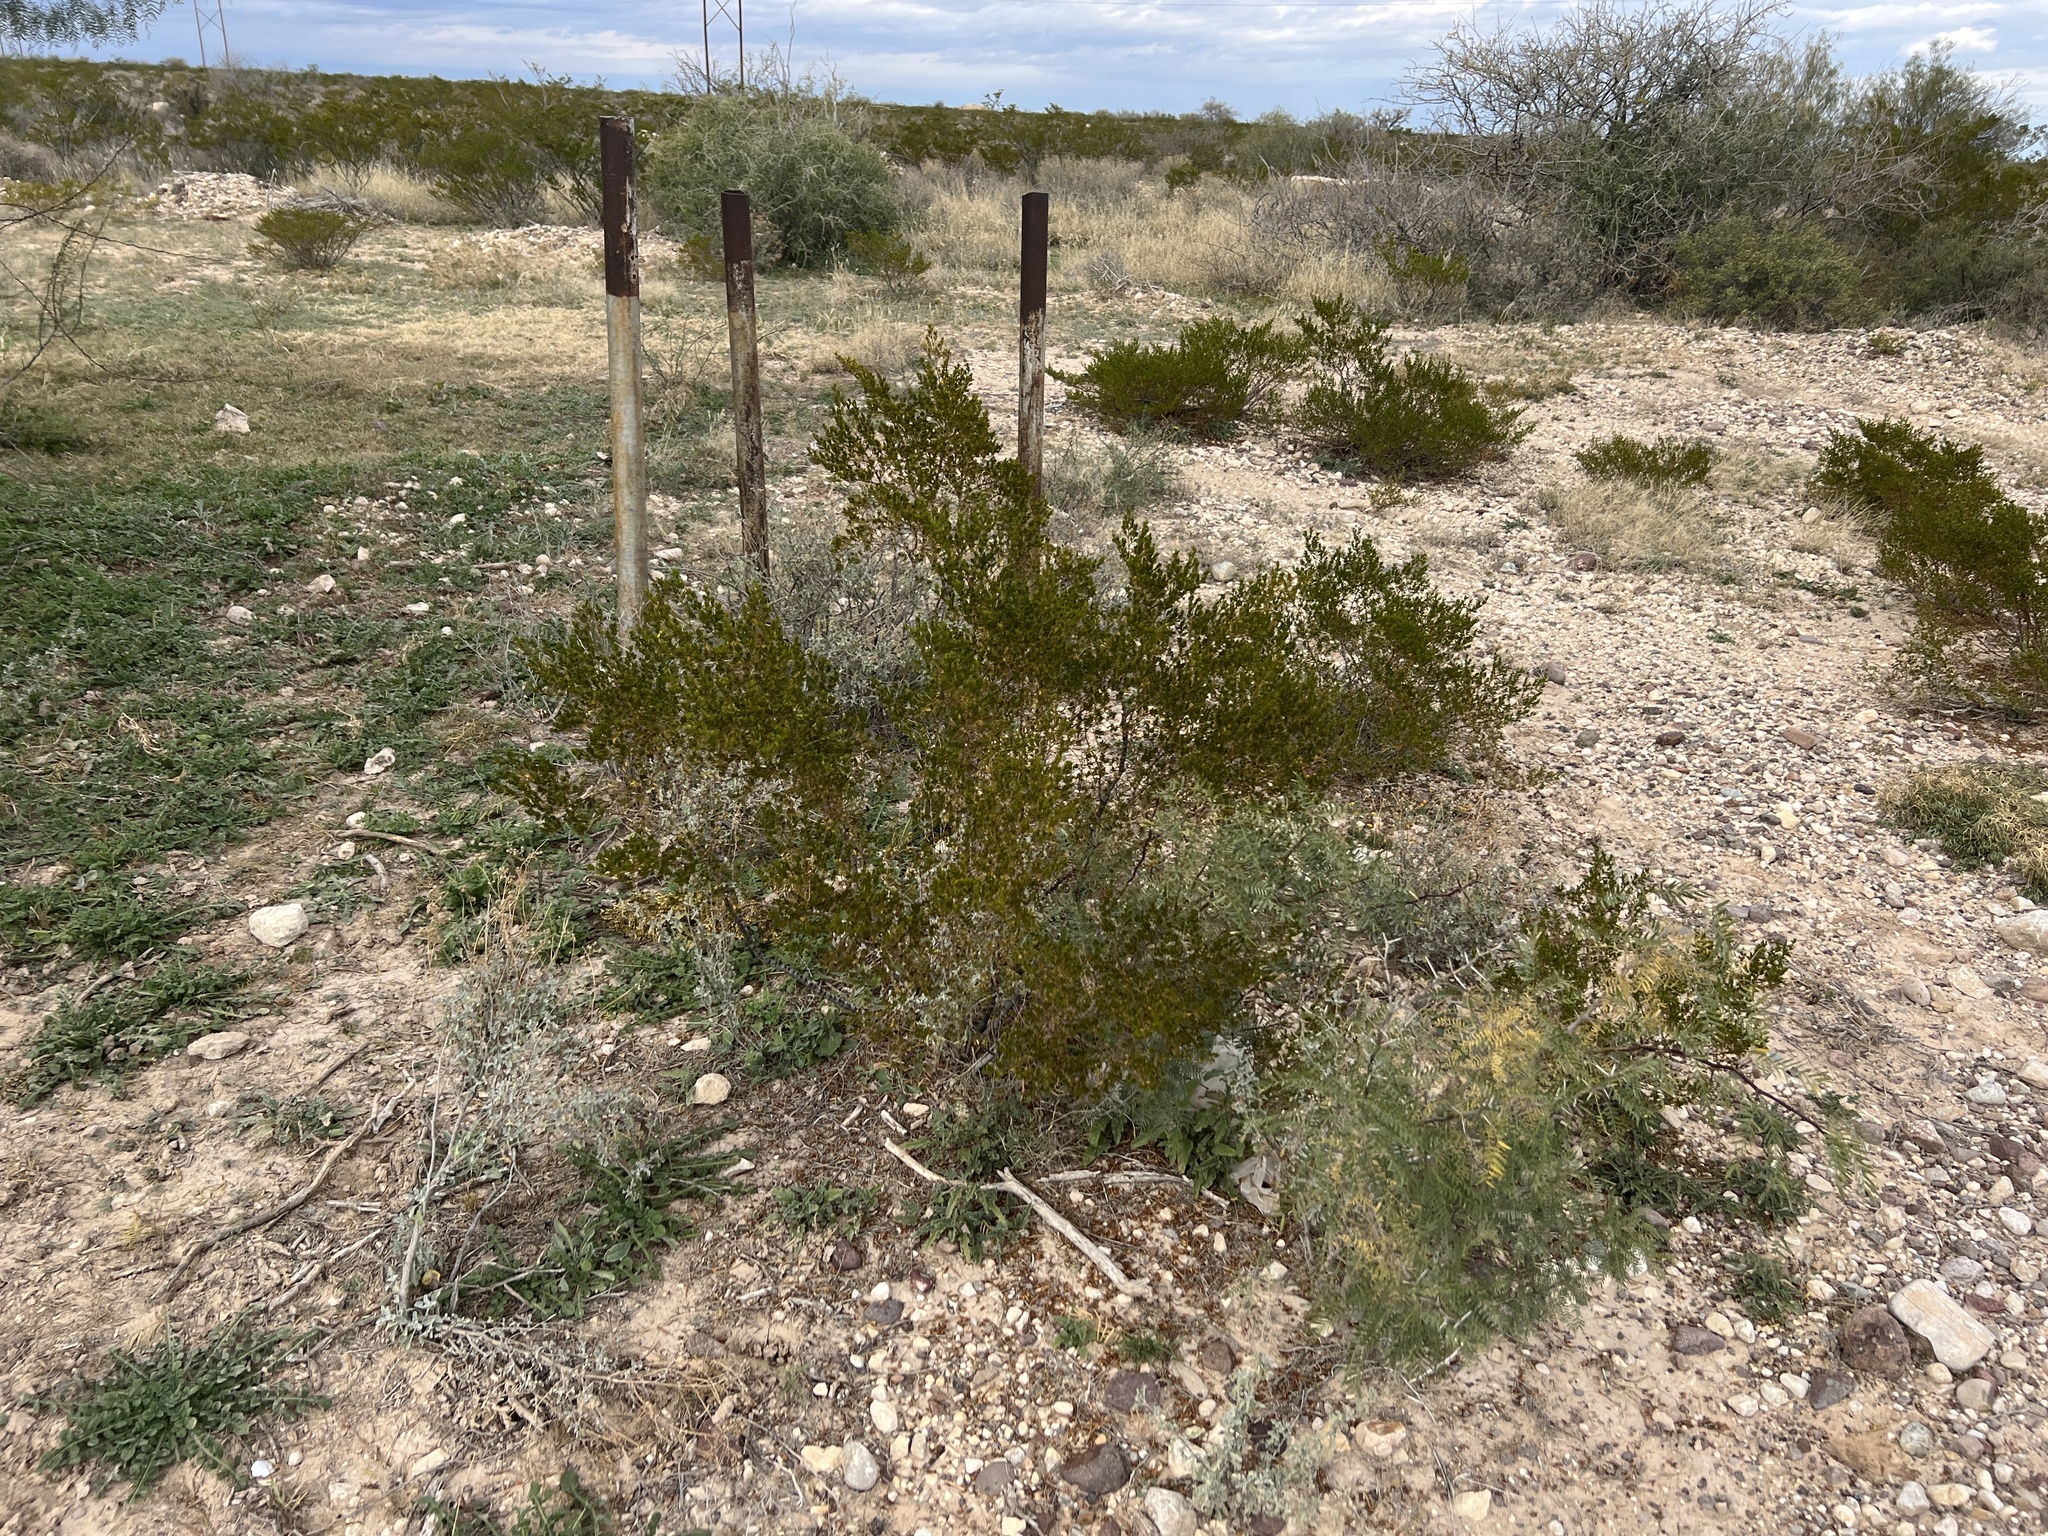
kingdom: Plantae
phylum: Tracheophyta
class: Magnoliopsida
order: Zygophyllales
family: Zygophyllaceae
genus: Larrea
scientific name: Larrea tridentata
